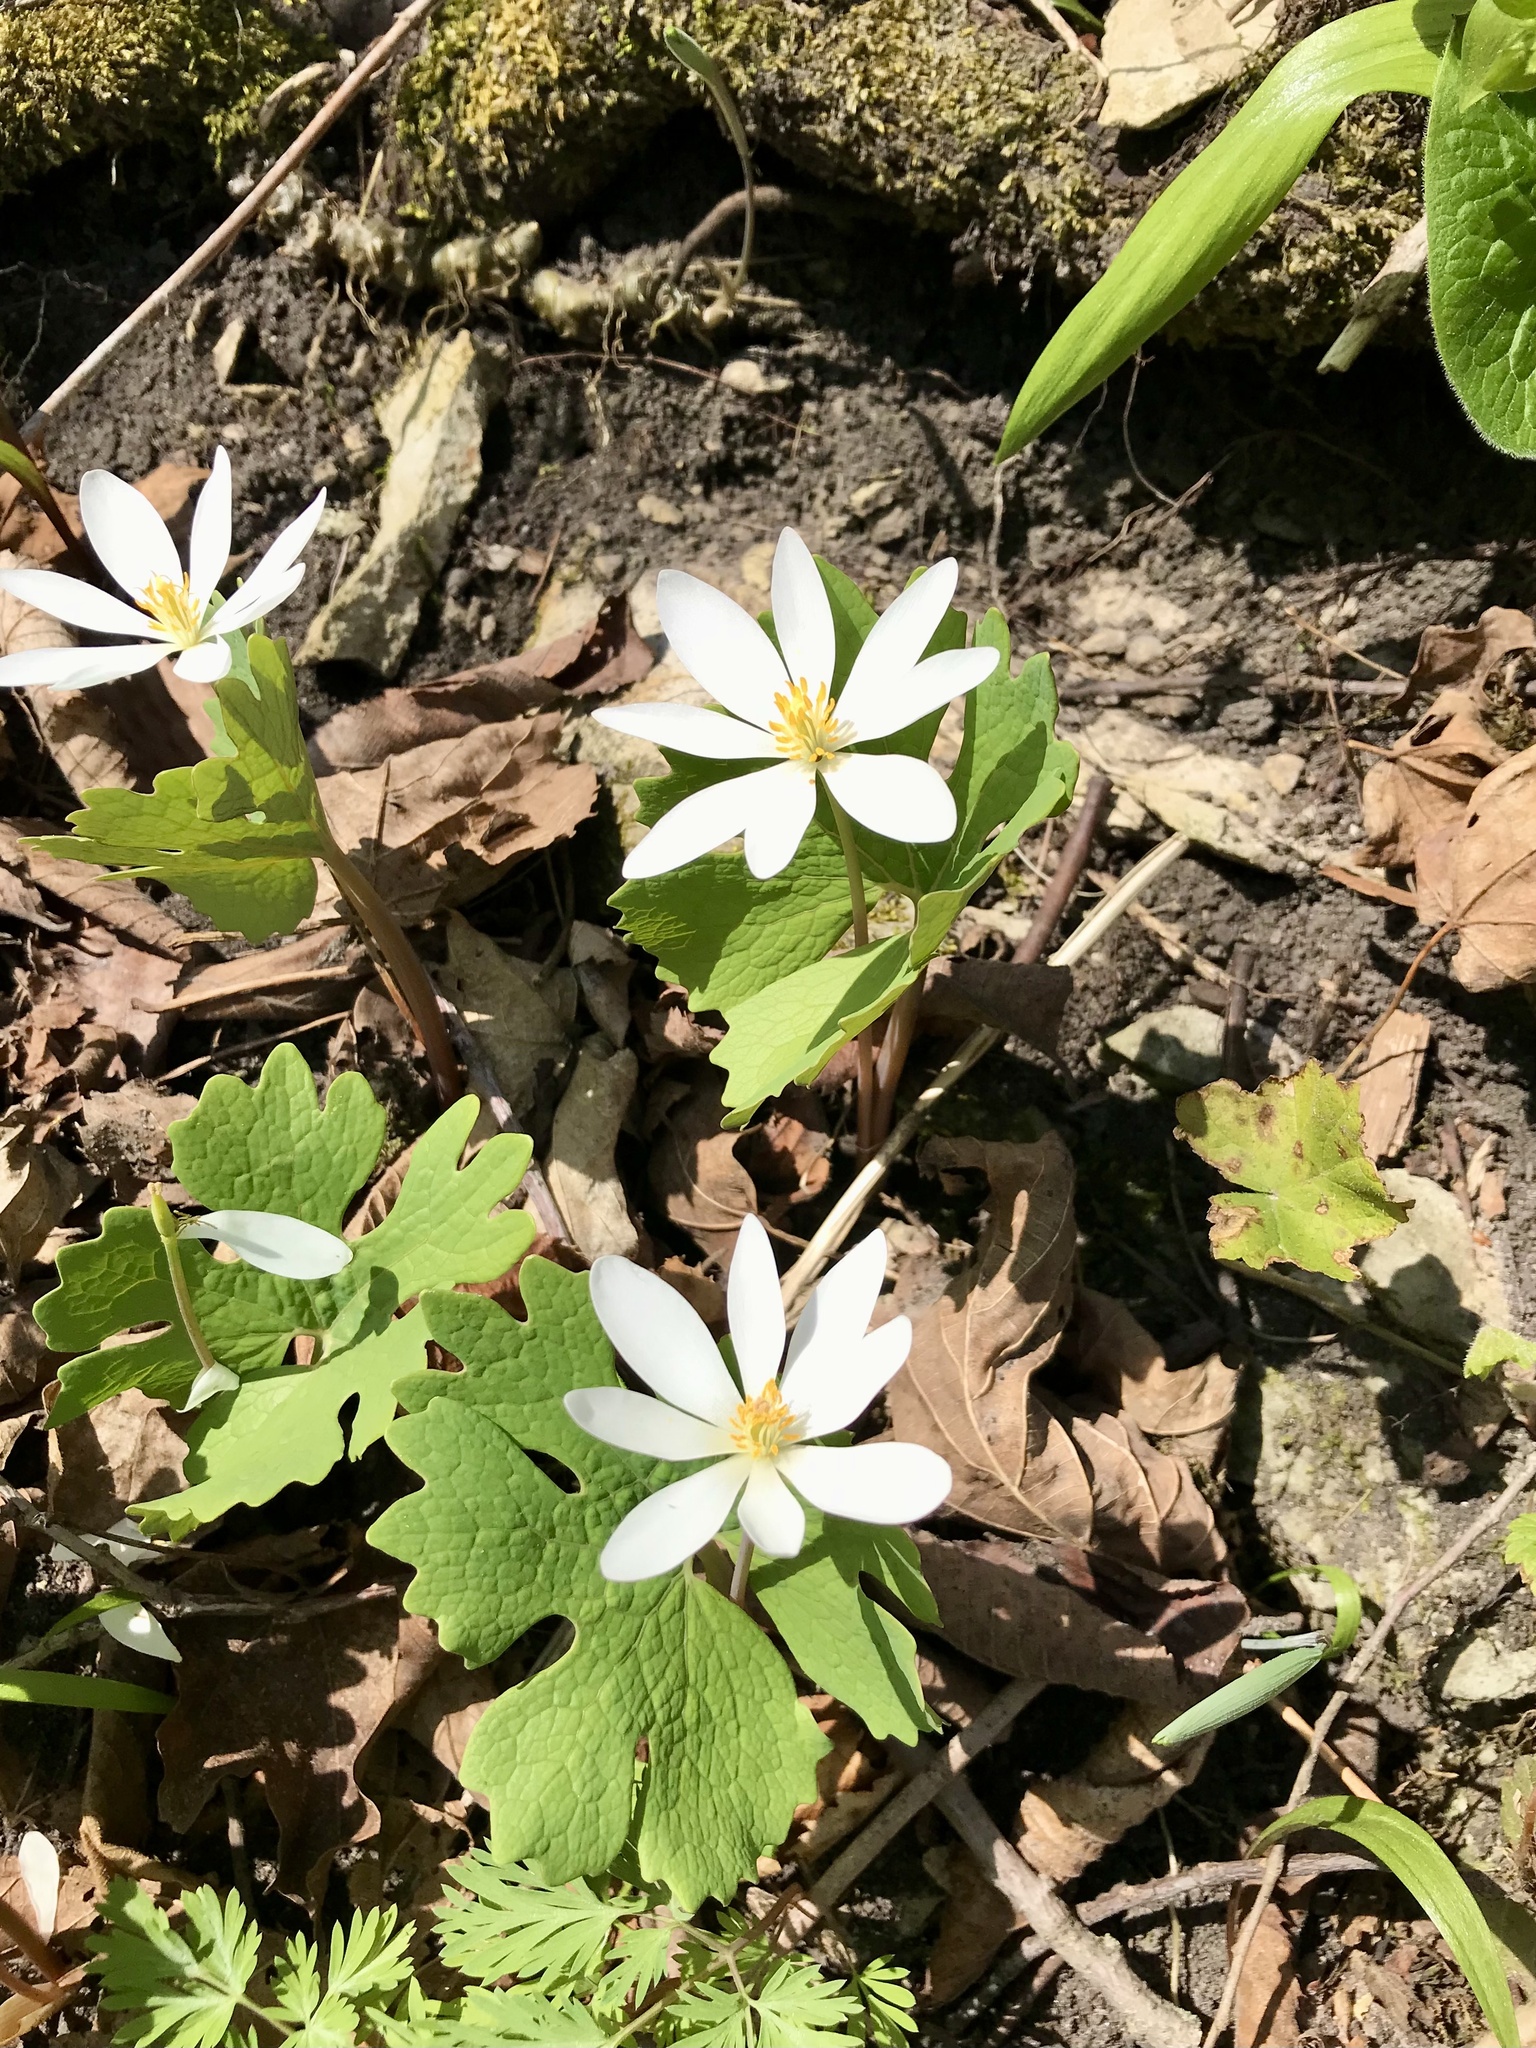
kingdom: Plantae
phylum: Tracheophyta
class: Magnoliopsida
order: Ranunculales
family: Papaveraceae
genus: Sanguinaria
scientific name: Sanguinaria canadensis
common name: Bloodroot
